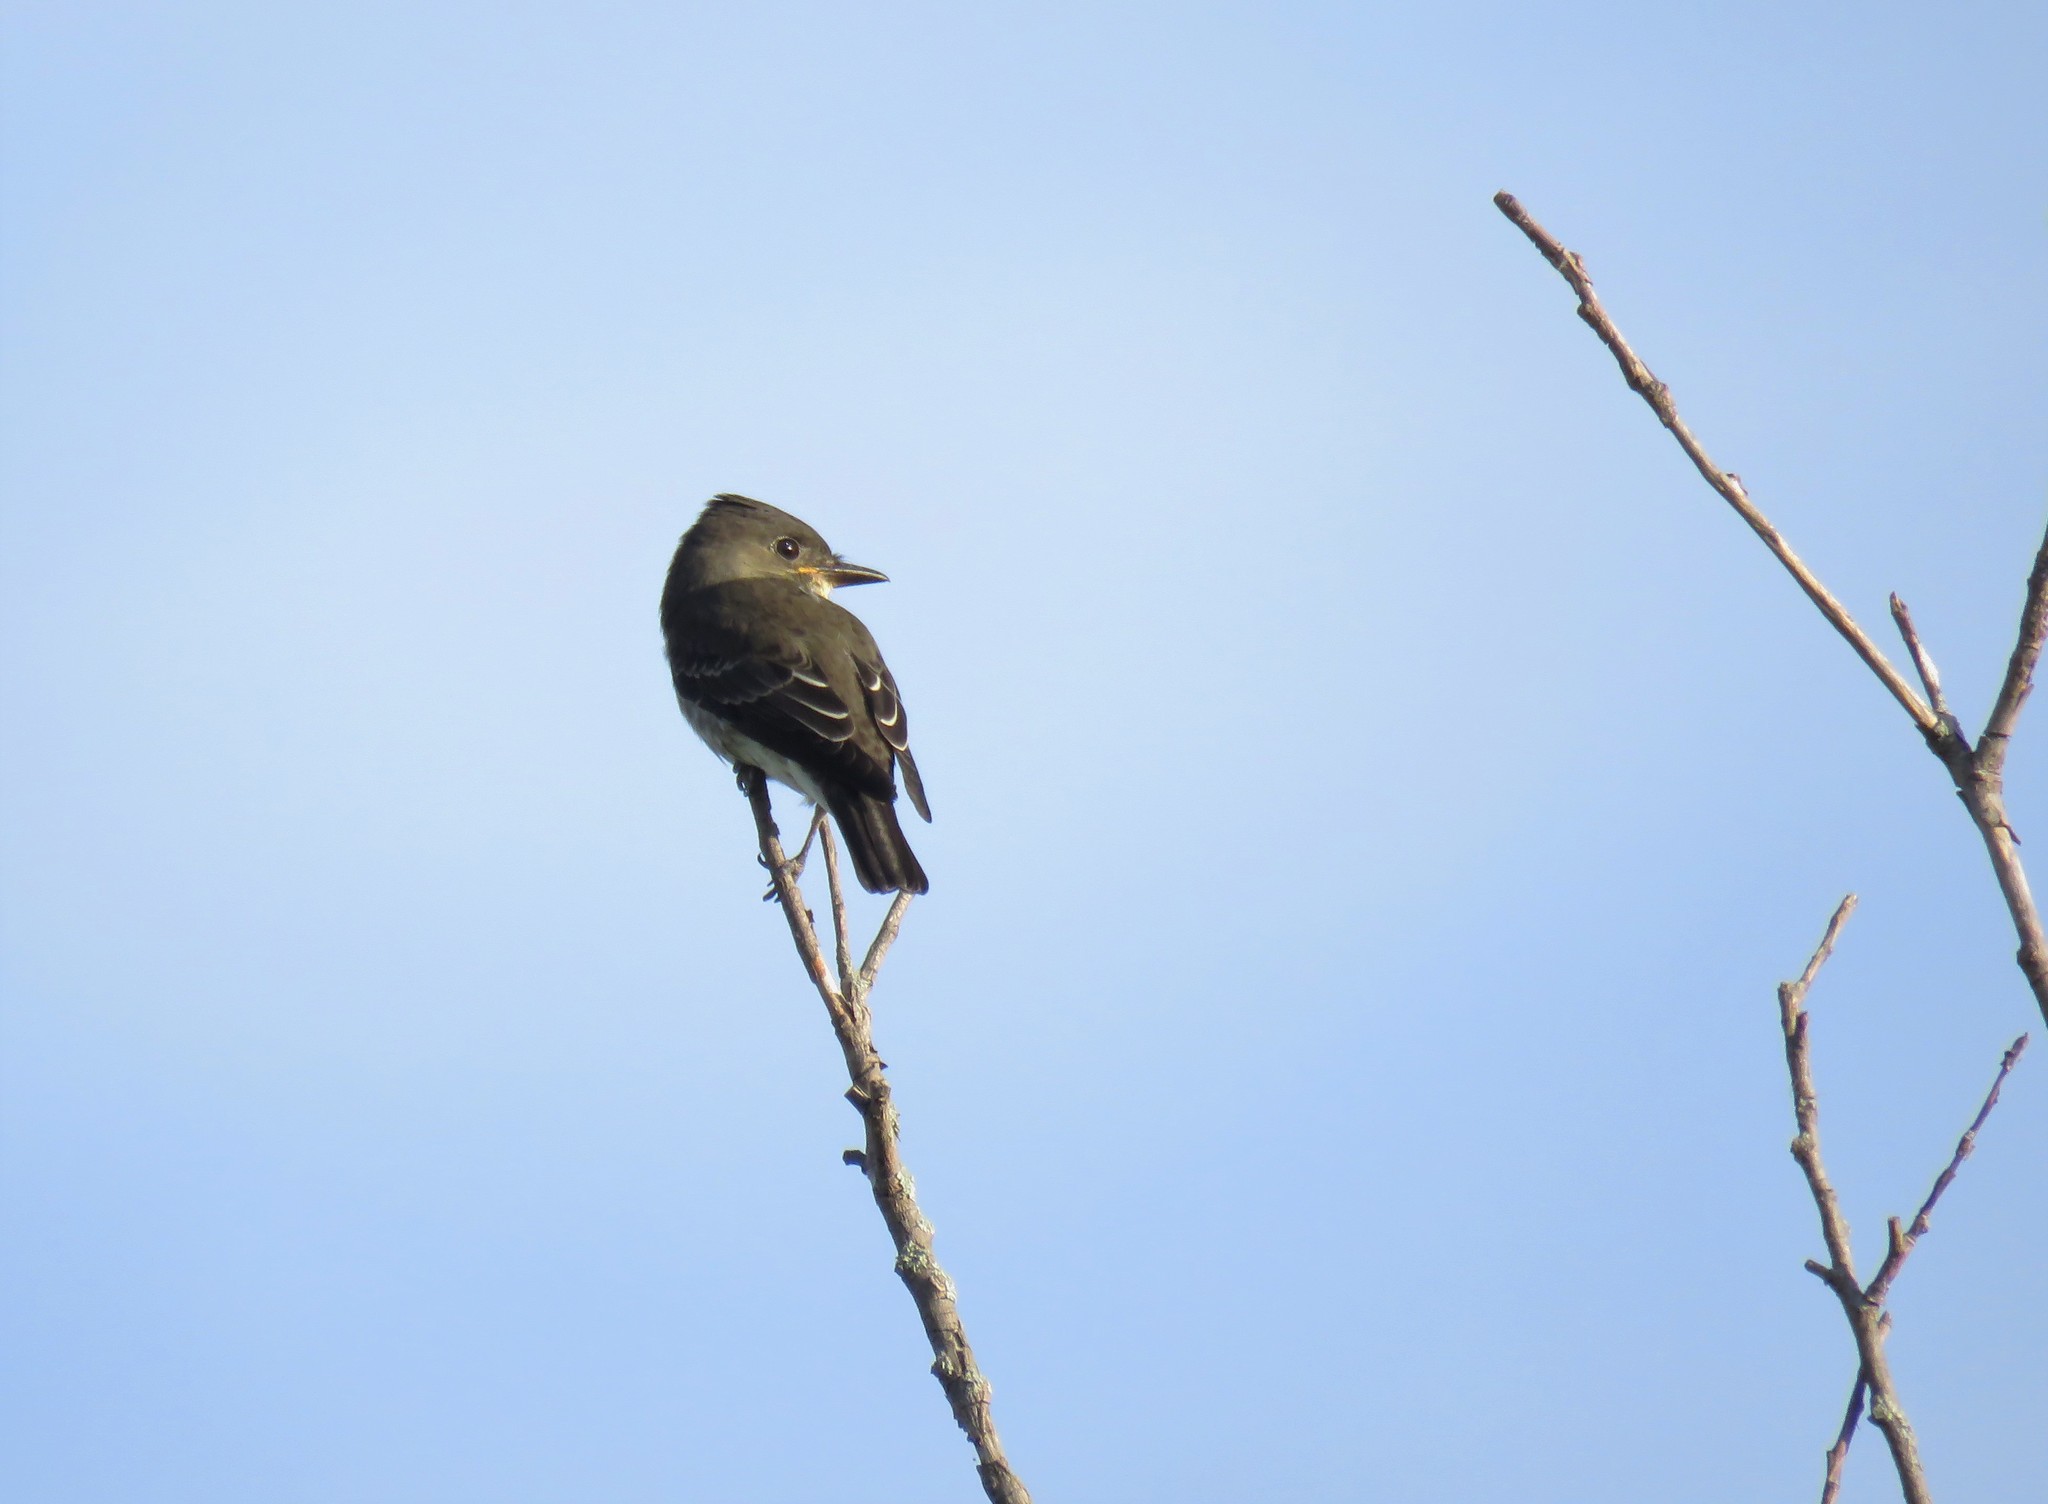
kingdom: Animalia
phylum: Chordata
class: Aves
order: Passeriformes
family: Tyrannidae
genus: Contopus
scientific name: Contopus cooperi
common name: Olive-sided flycatcher
